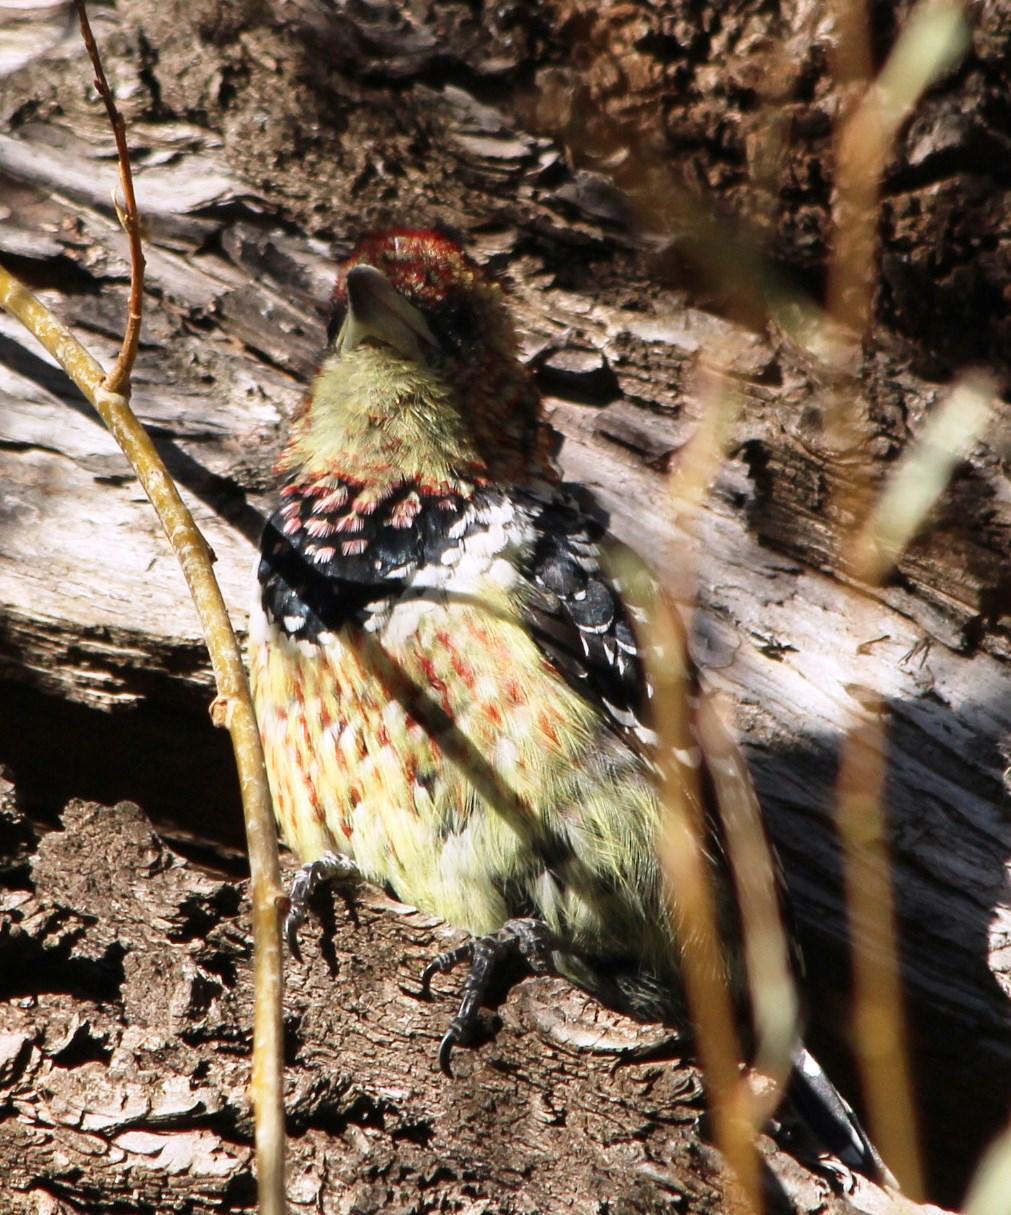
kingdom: Animalia
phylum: Chordata
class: Aves
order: Piciformes
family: Lybiidae
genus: Trachyphonus
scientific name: Trachyphonus vaillantii
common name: Crested barbet
